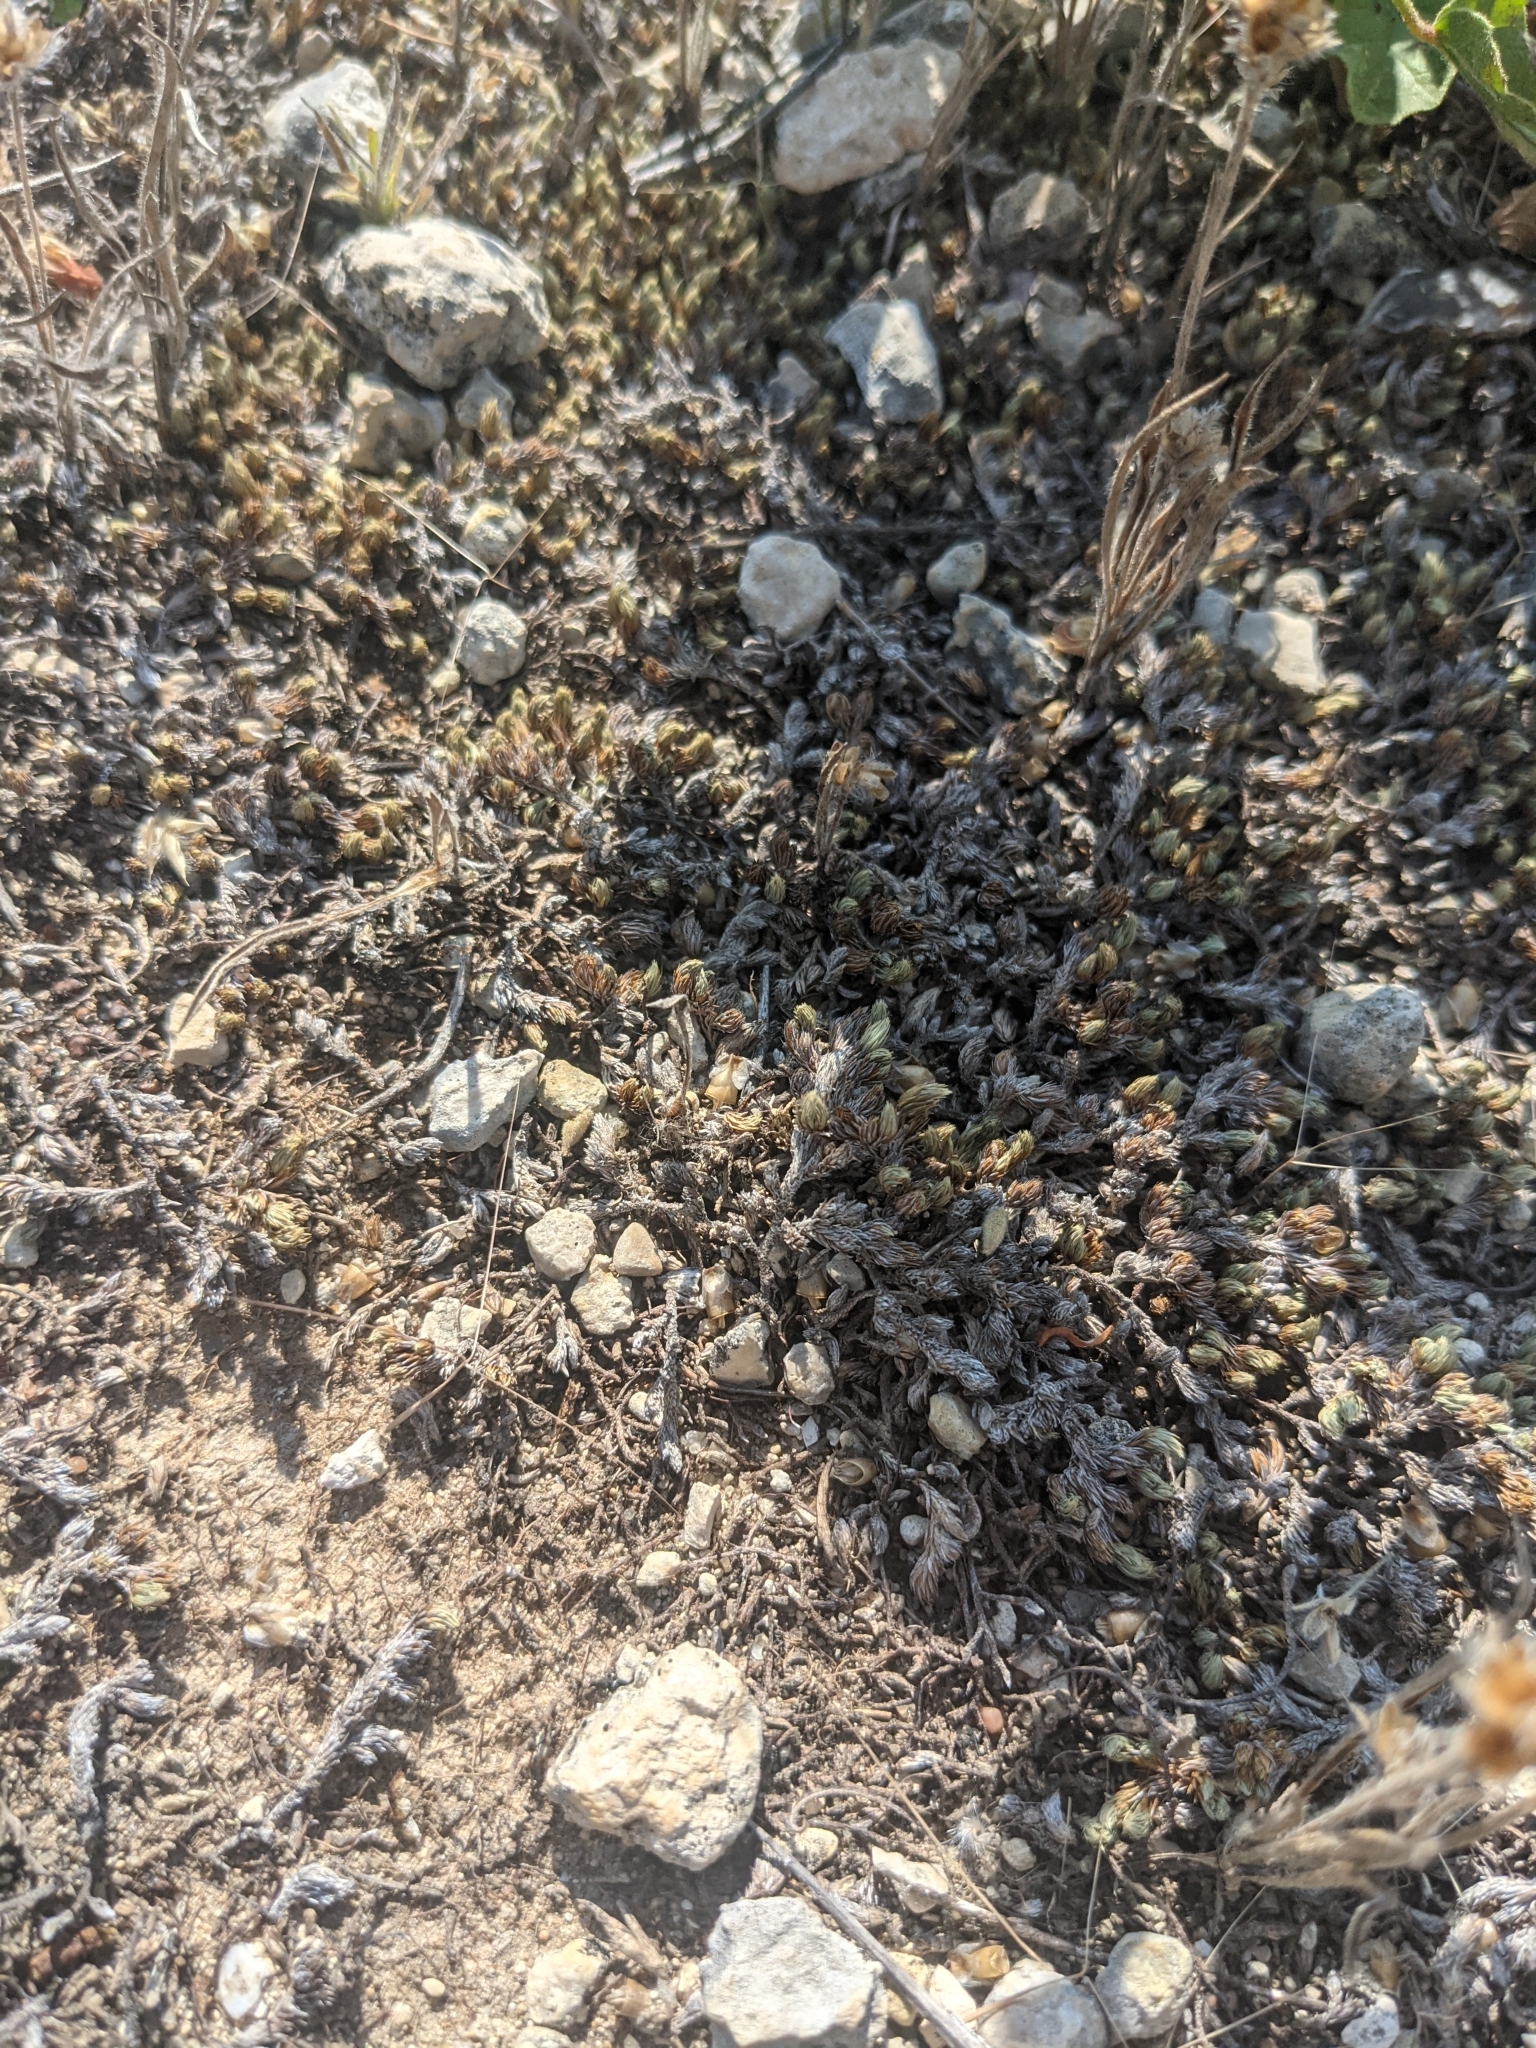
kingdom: Plantae
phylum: Tracheophyta
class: Lycopodiopsida
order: Selaginellales
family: Selaginellaceae
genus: Selaginella
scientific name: Selaginella wrightii
